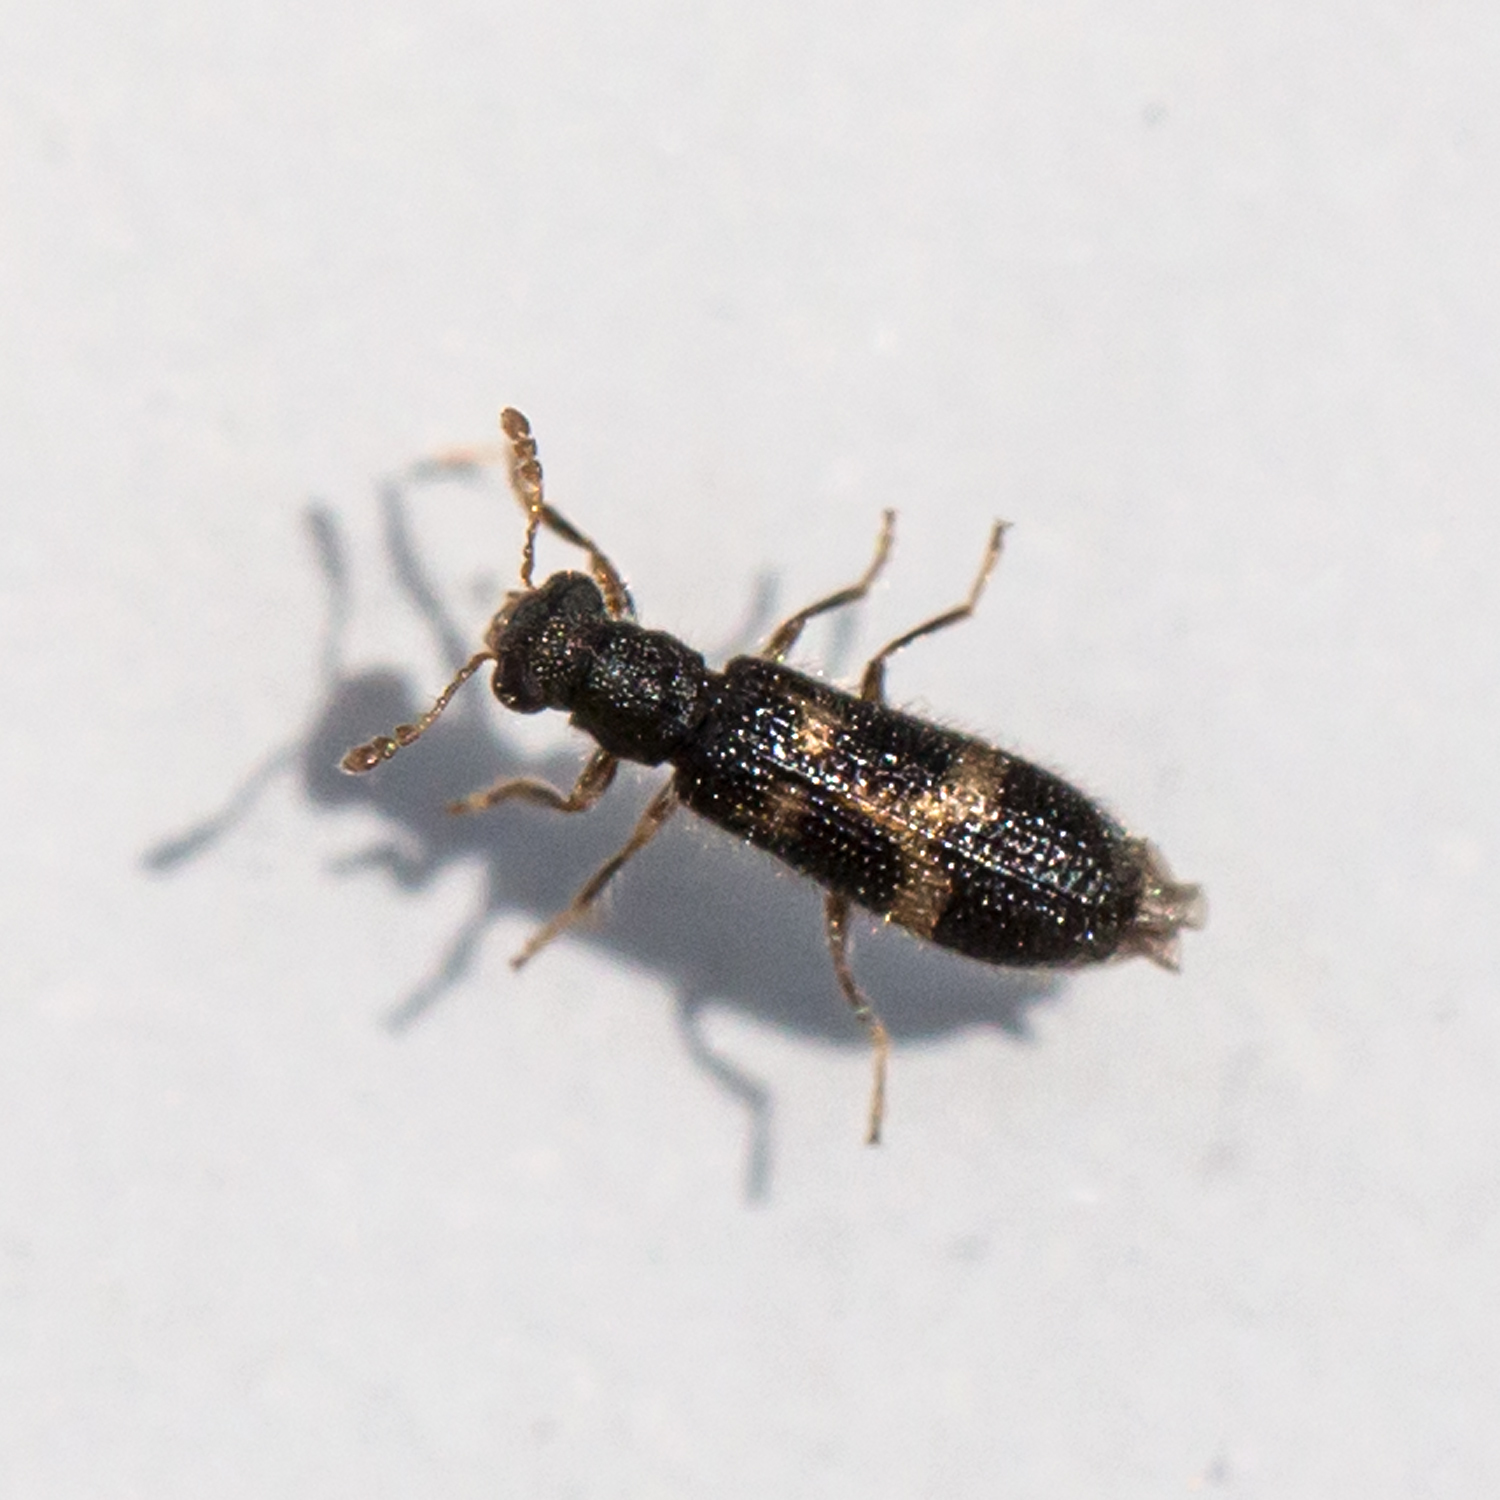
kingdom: Animalia
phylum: Arthropoda
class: Insecta
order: Coleoptera
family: Cleridae
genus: Madoniella
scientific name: Madoniella dislocata
